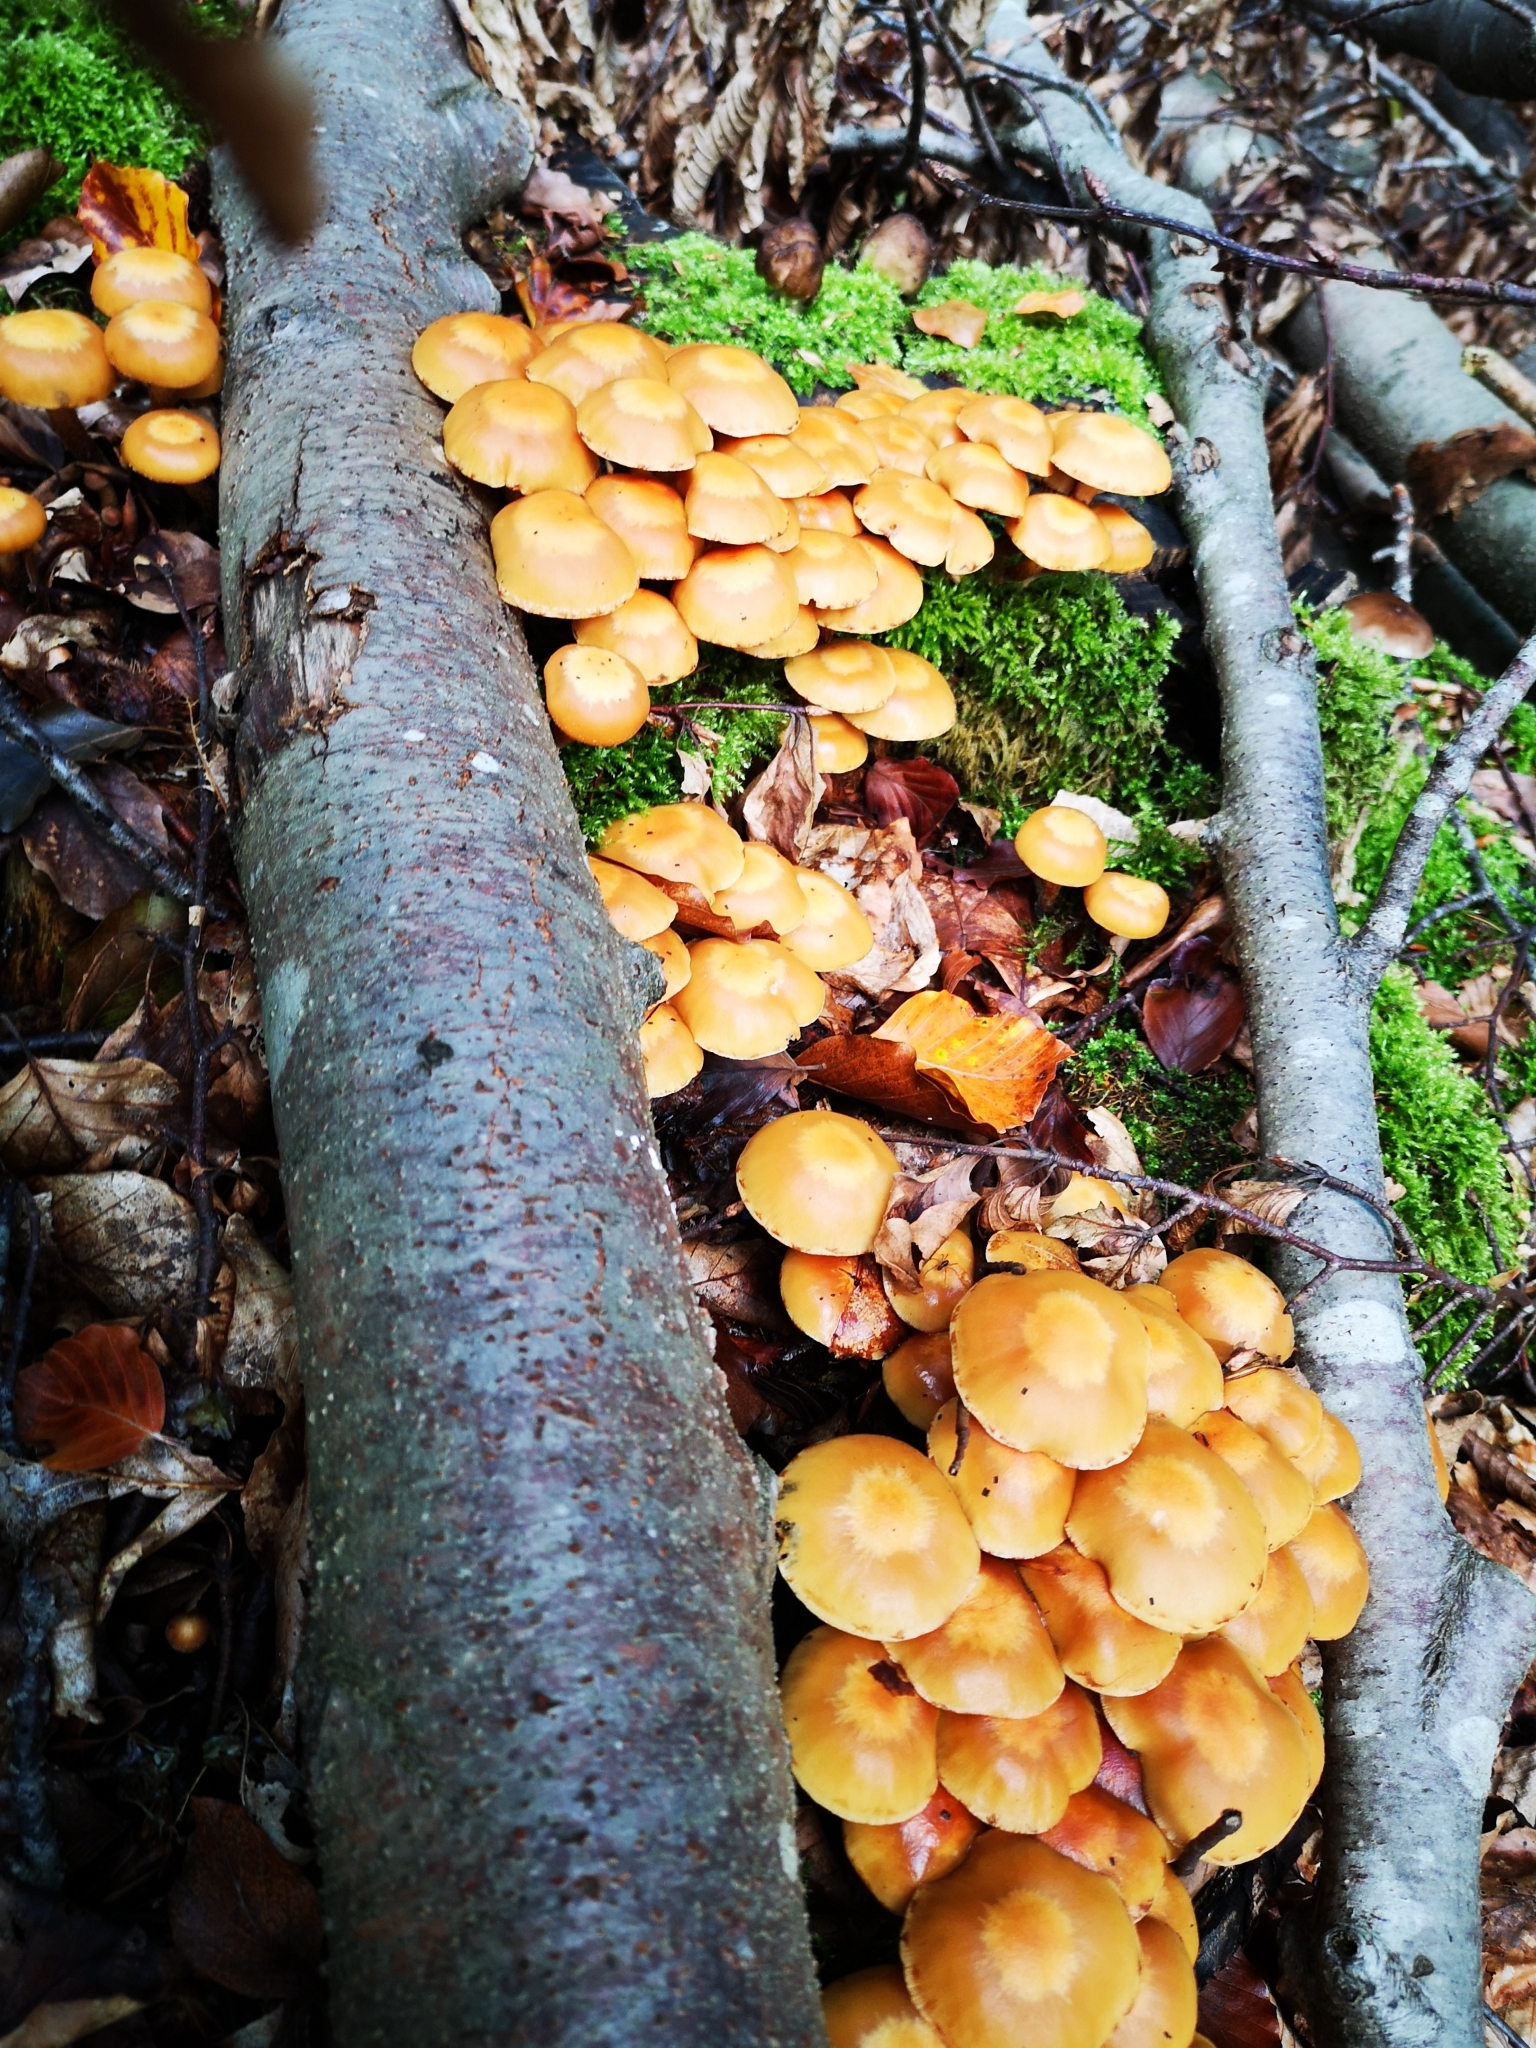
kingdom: Fungi
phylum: Basidiomycota
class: Agaricomycetes
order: Agaricales
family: Strophariaceae
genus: Kuehneromyces
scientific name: Kuehneromyces mutabilis
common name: Sheathed woodtuft
